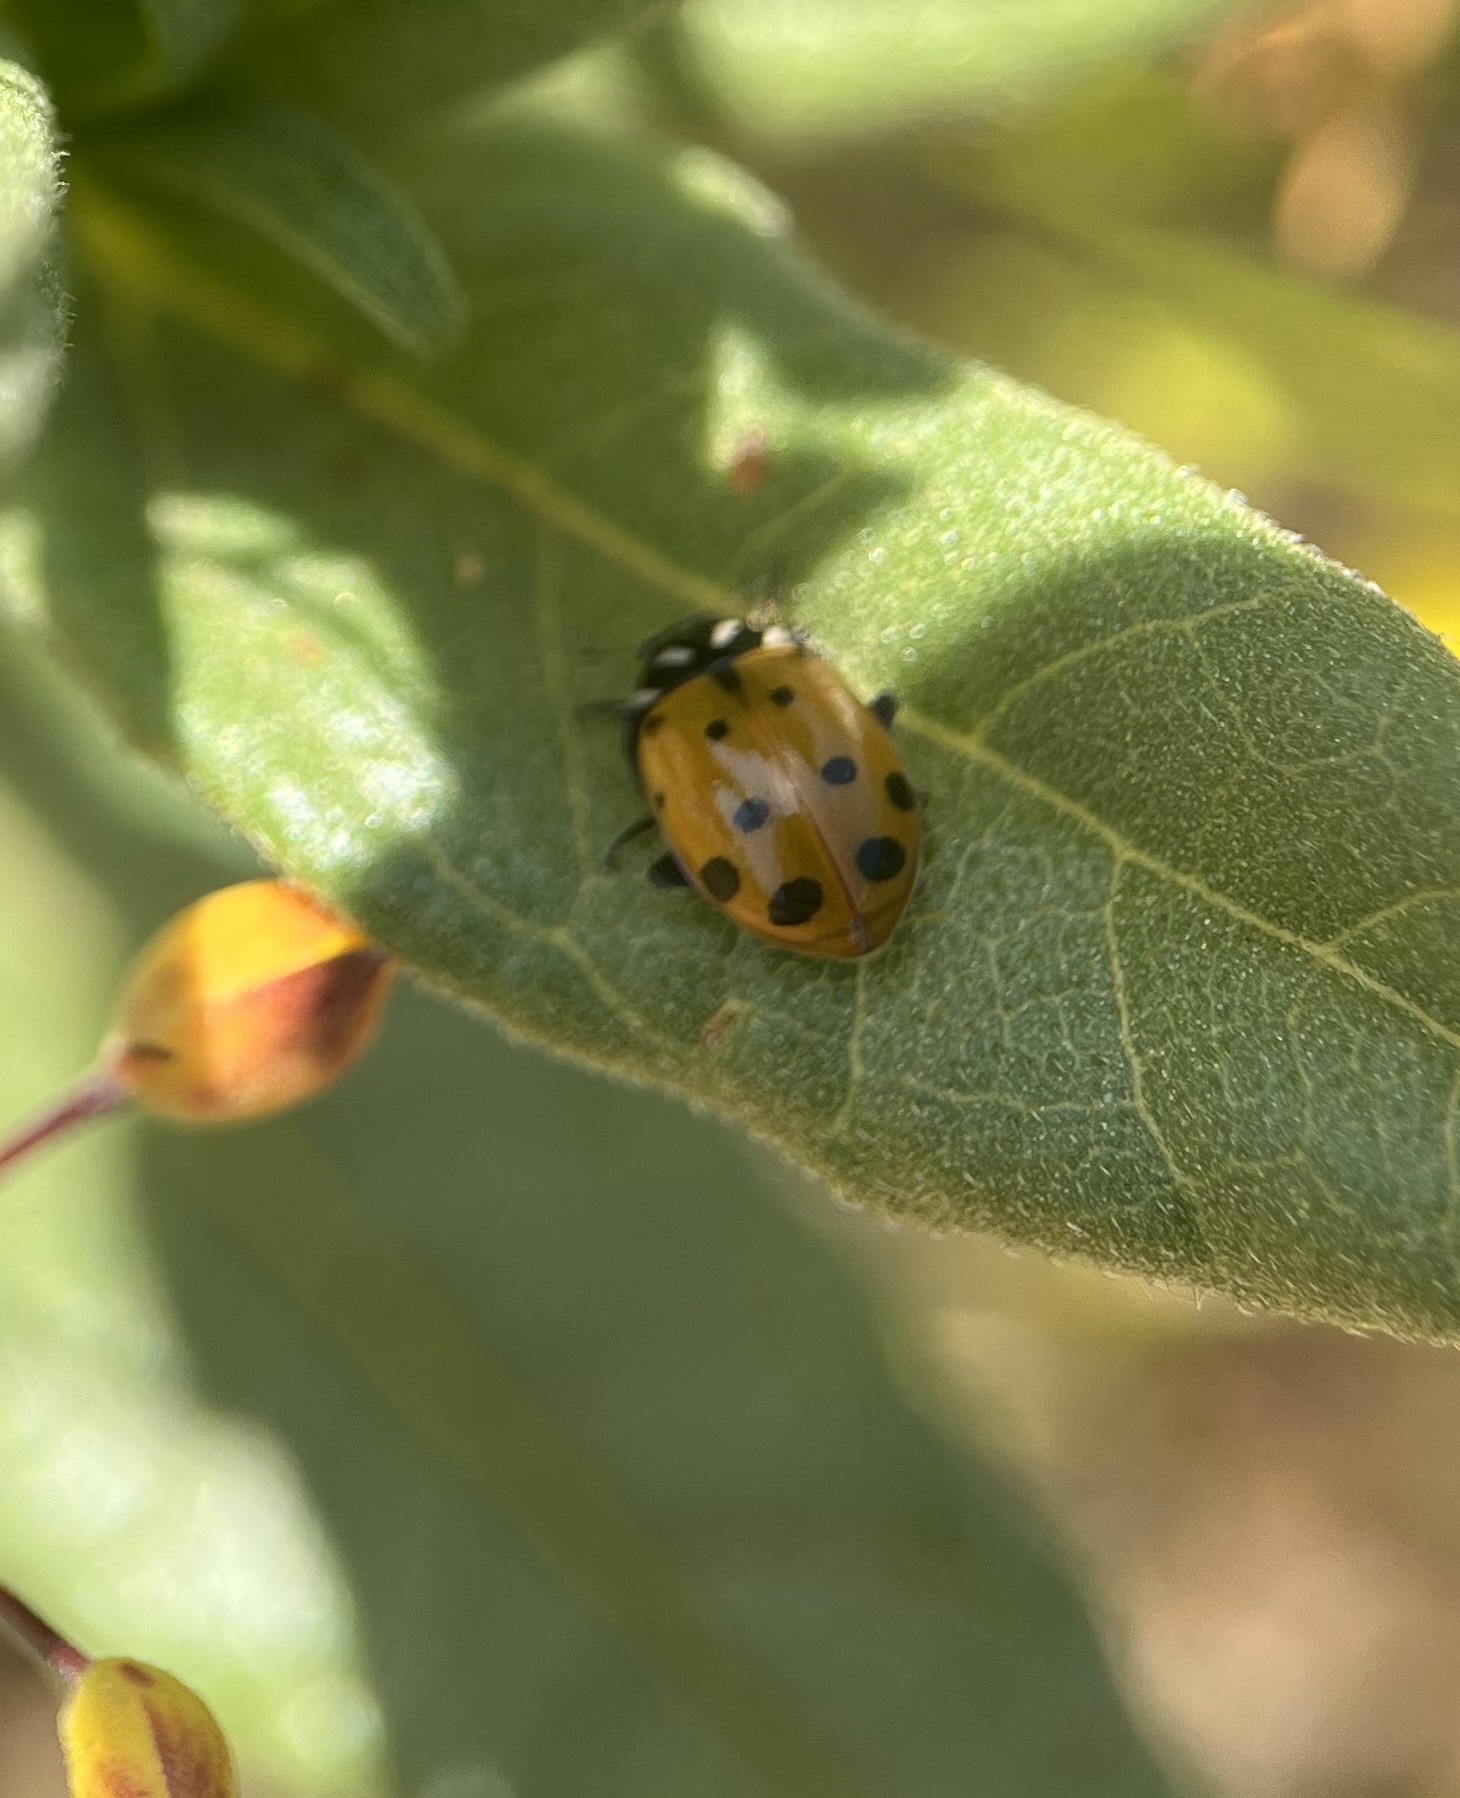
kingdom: Animalia
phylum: Arthropoda
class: Insecta
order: Coleoptera
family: Coccinellidae
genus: Hippodamia
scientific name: Hippodamia convergens
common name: Convergent lady beetle
